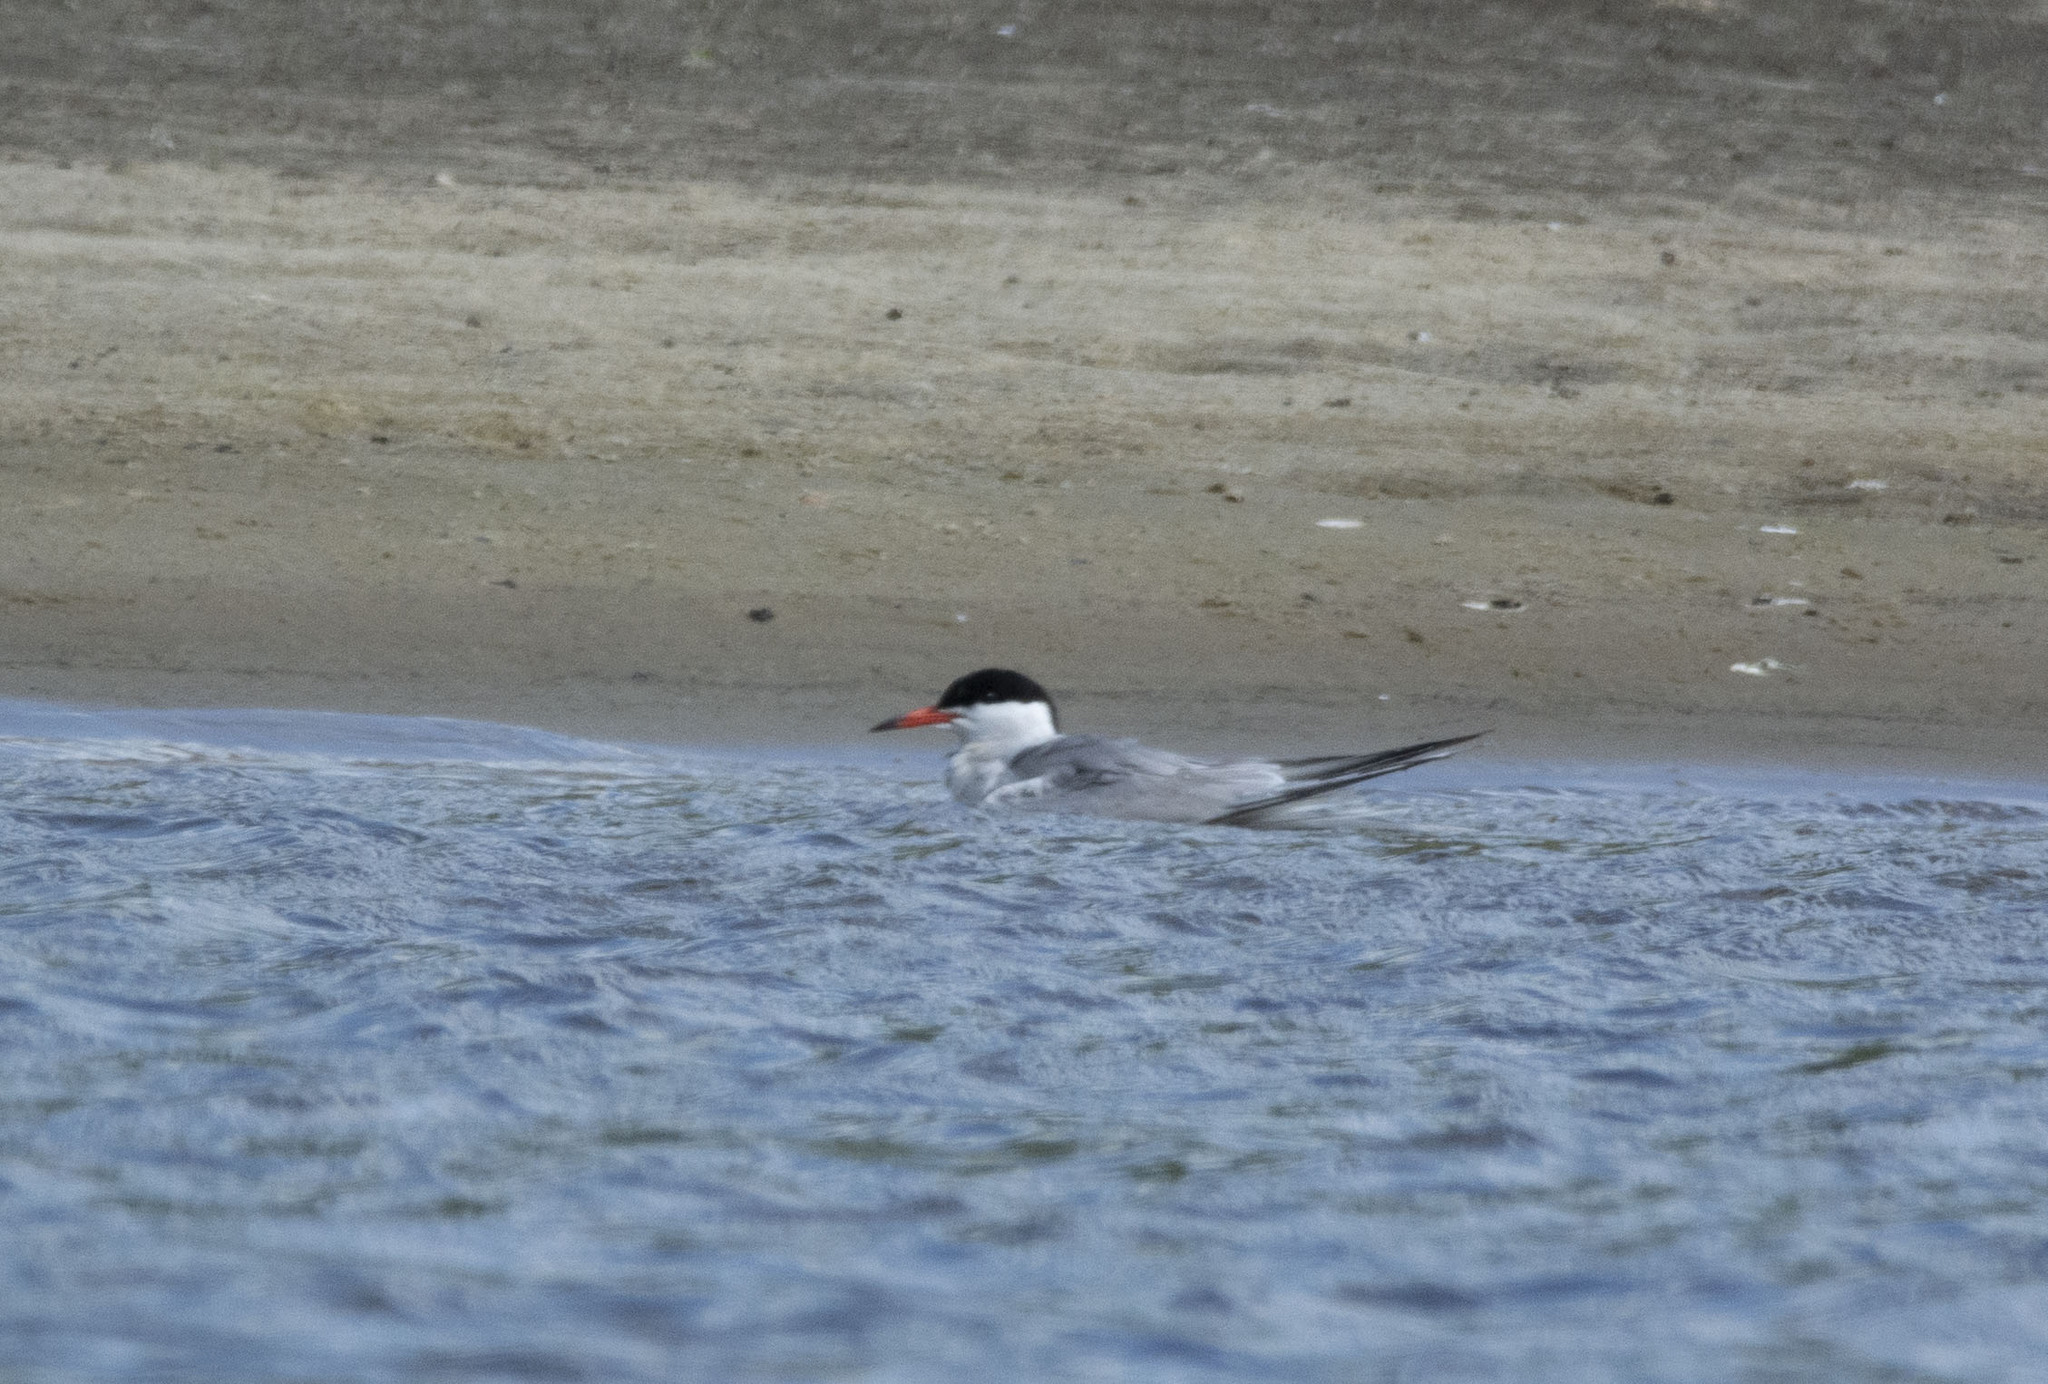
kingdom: Animalia
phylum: Chordata
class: Aves
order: Charadriiformes
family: Laridae
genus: Sterna
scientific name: Sterna hirundo
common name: Common tern
